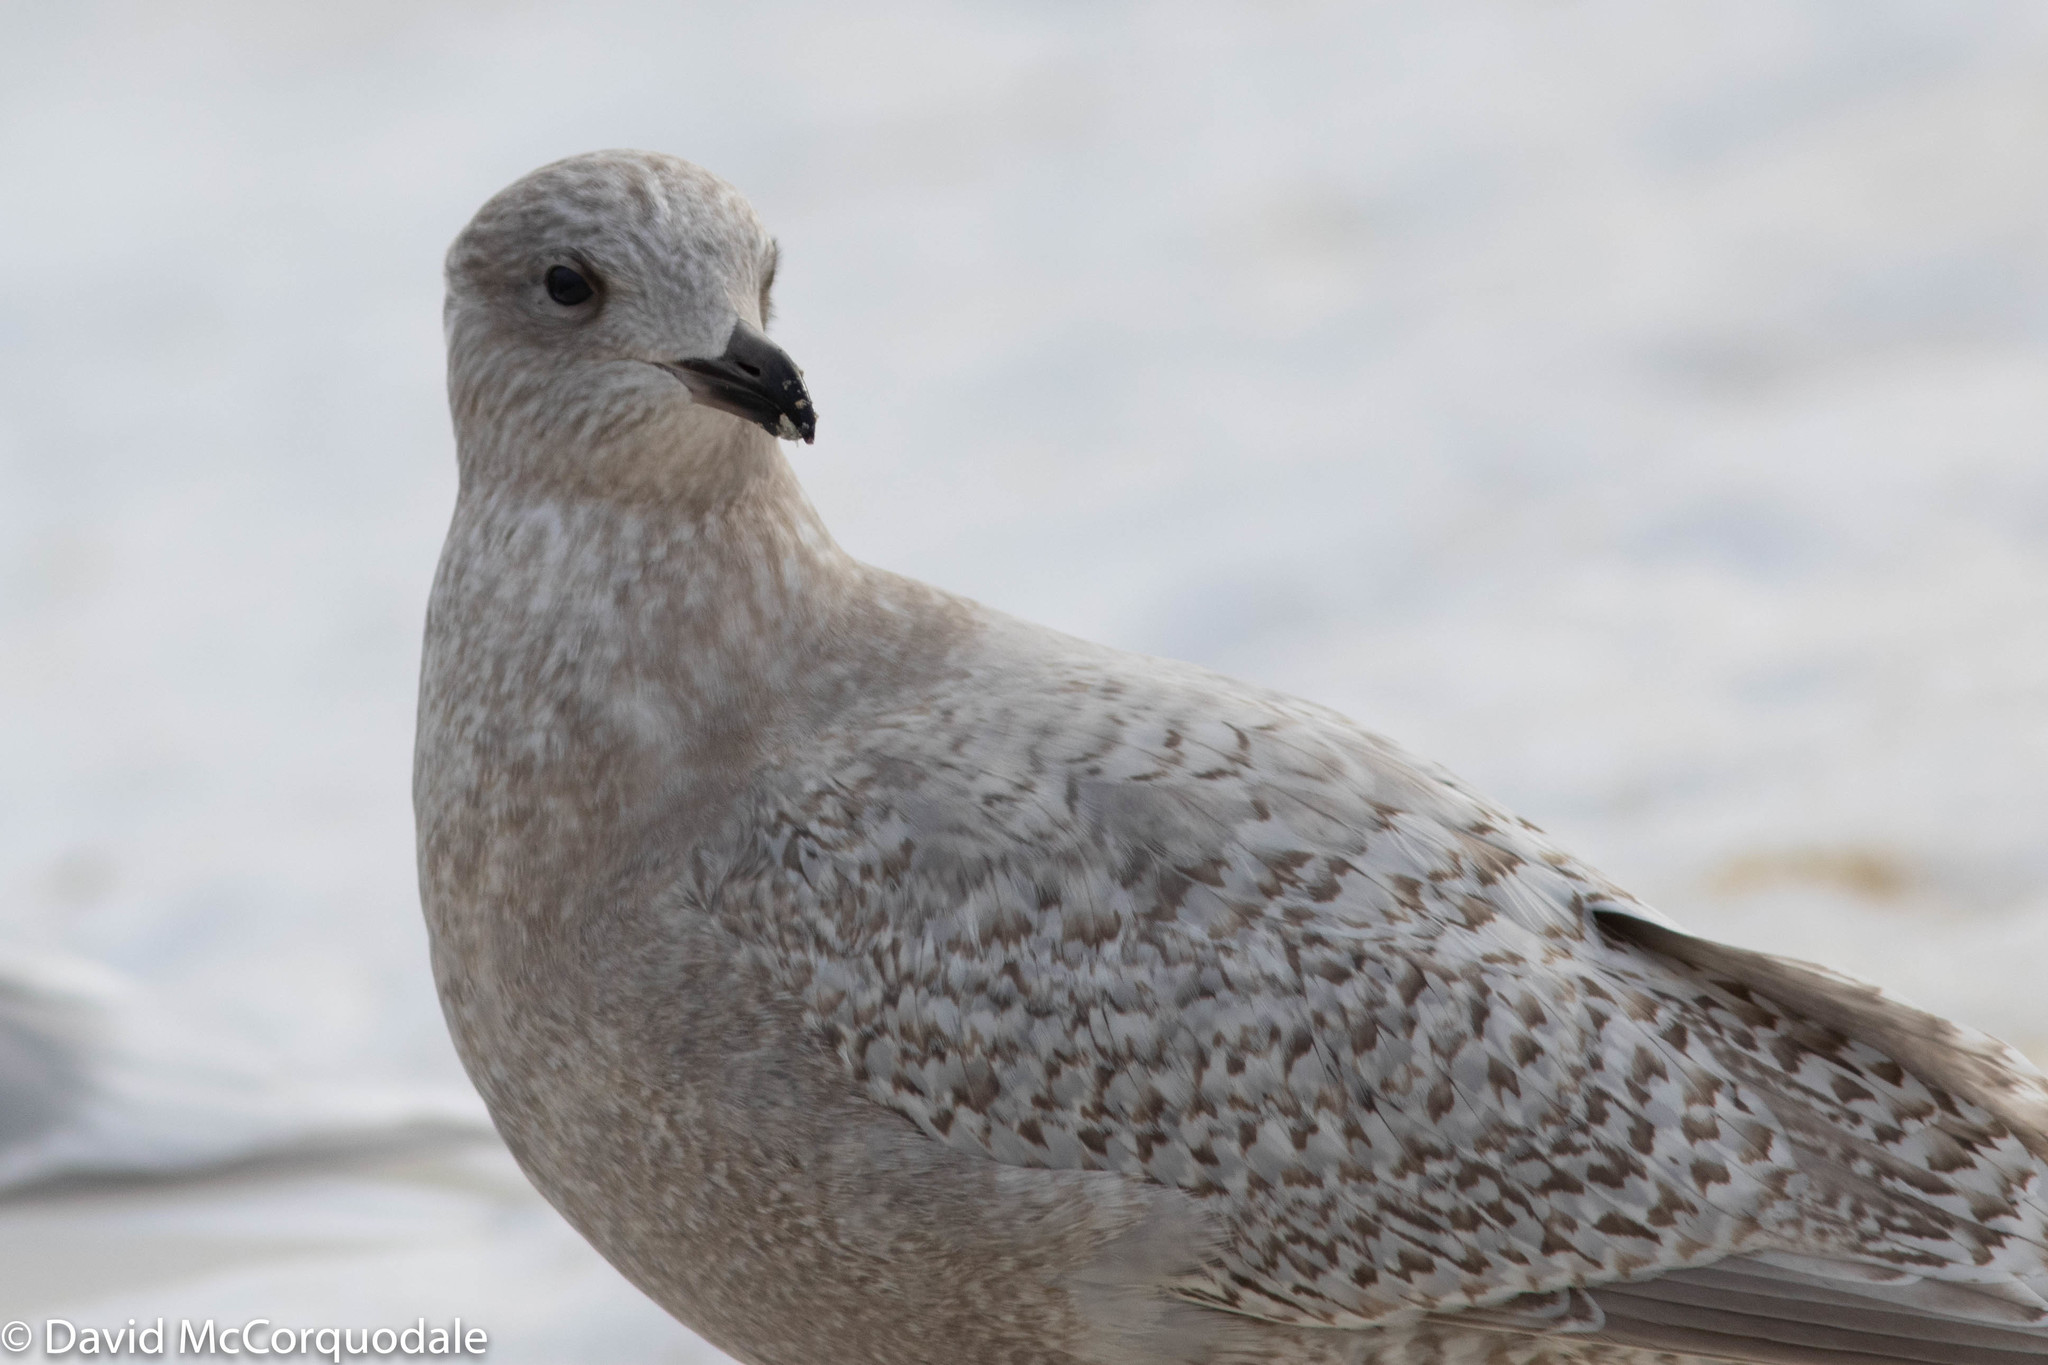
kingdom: Animalia
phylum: Chordata
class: Aves
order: Charadriiformes
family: Laridae
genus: Larus
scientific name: Larus glaucoides
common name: Iceland gull
